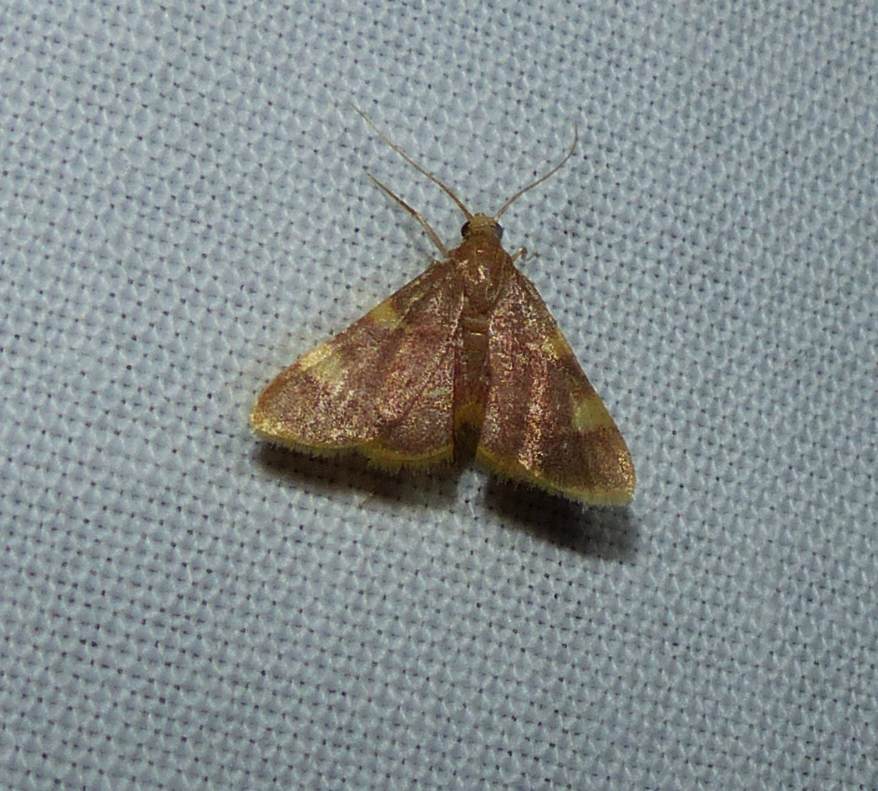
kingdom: Animalia
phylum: Arthropoda
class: Insecta
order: Lepidoptera
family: Pyralidae
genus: Hypsopygia
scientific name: Hypsopygia costalis
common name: Gold triangle
